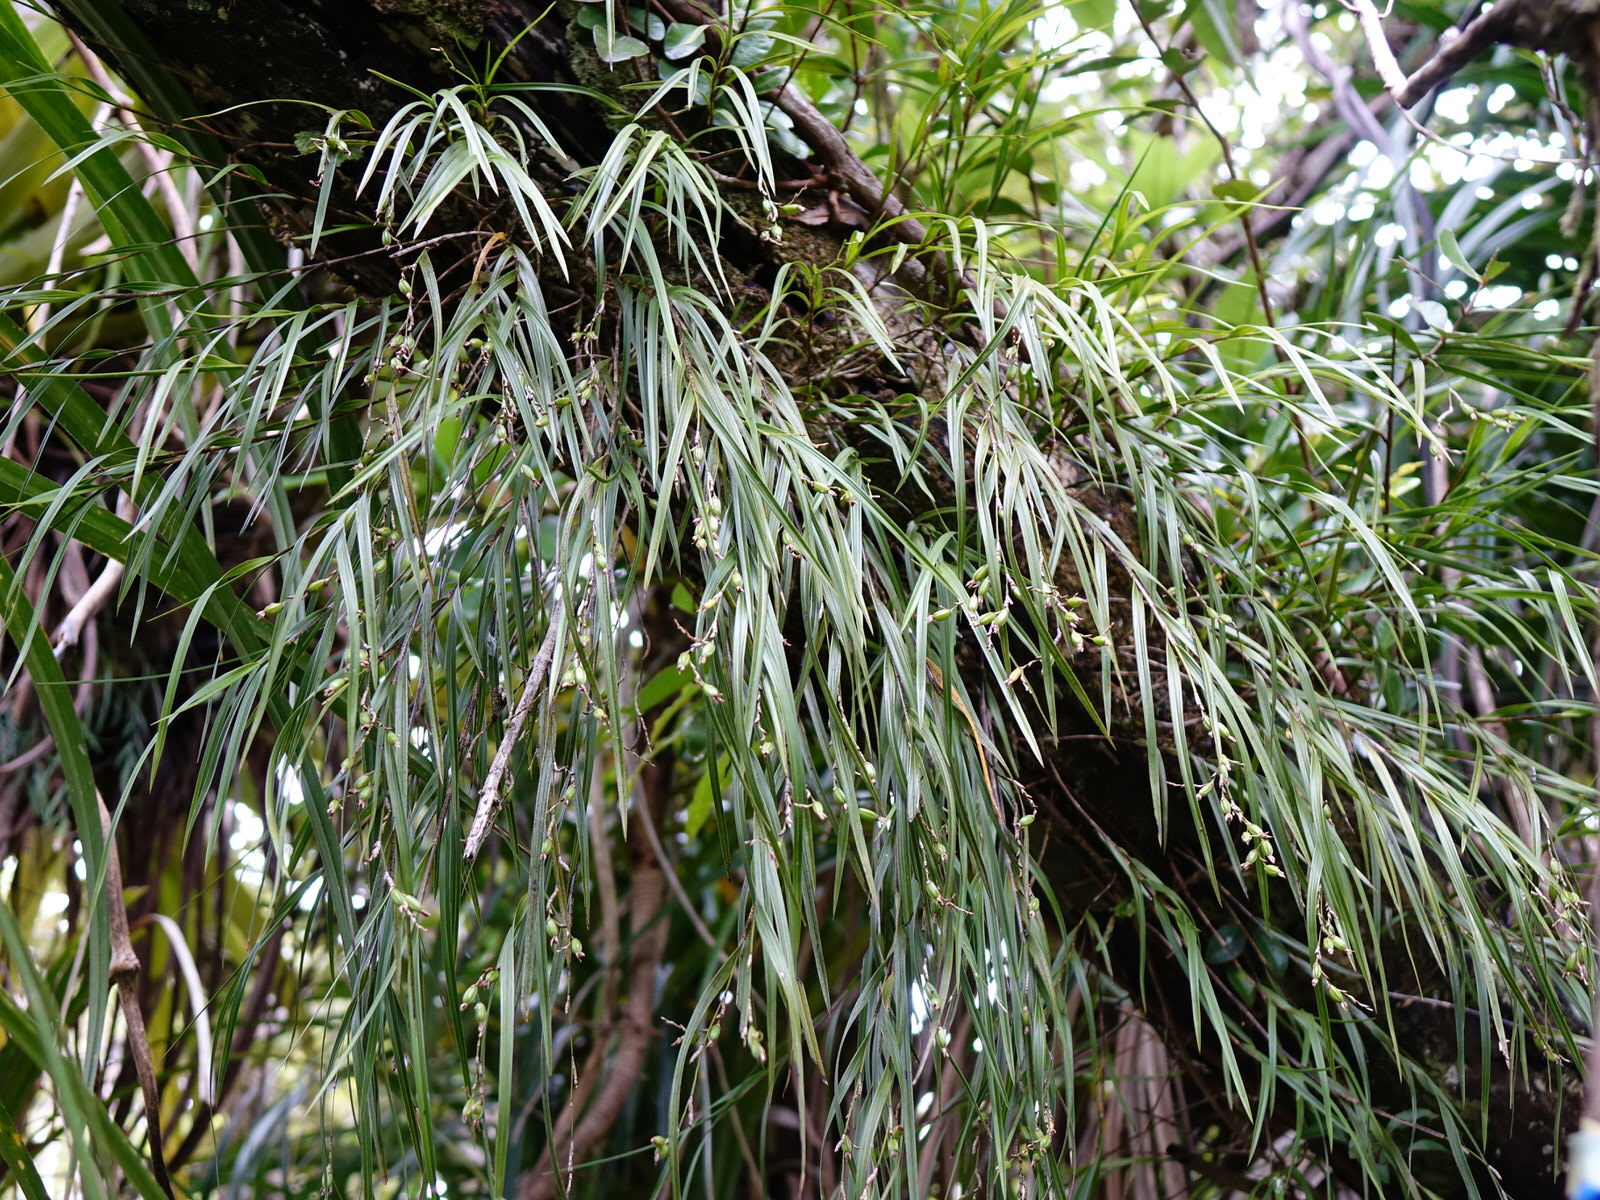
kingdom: Plantae
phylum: Tracheophyta
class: Liliopsida
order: Asparagales
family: Orchidaceae
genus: Earina
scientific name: Earina mucronata
